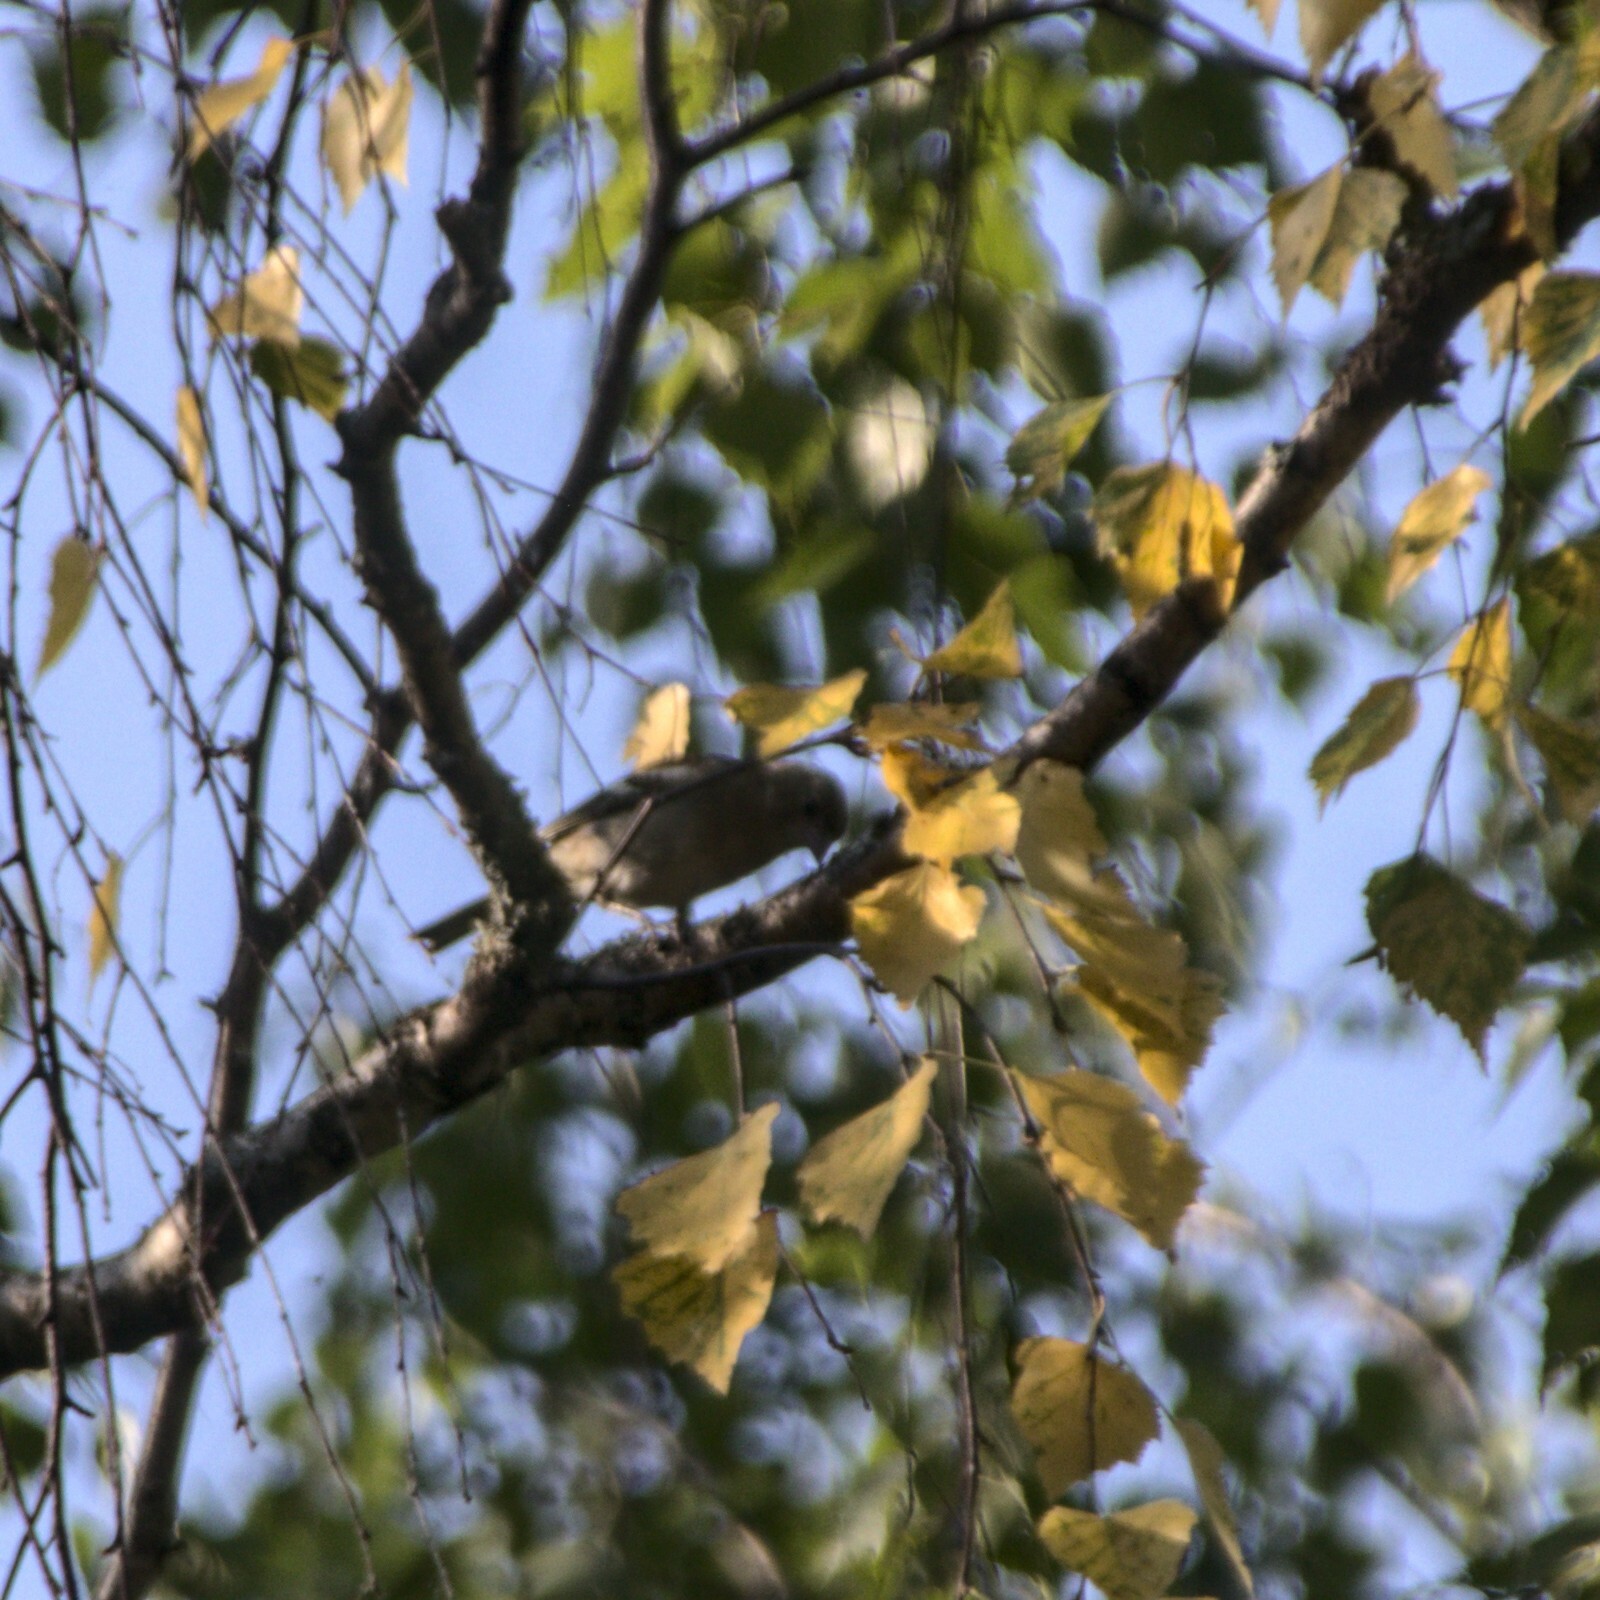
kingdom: Animalia
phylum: Chordata
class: Aves
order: Passeriformes
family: Fringillidae
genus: Fringilla
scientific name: Fringilla coelebs
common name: Common chaffinch
